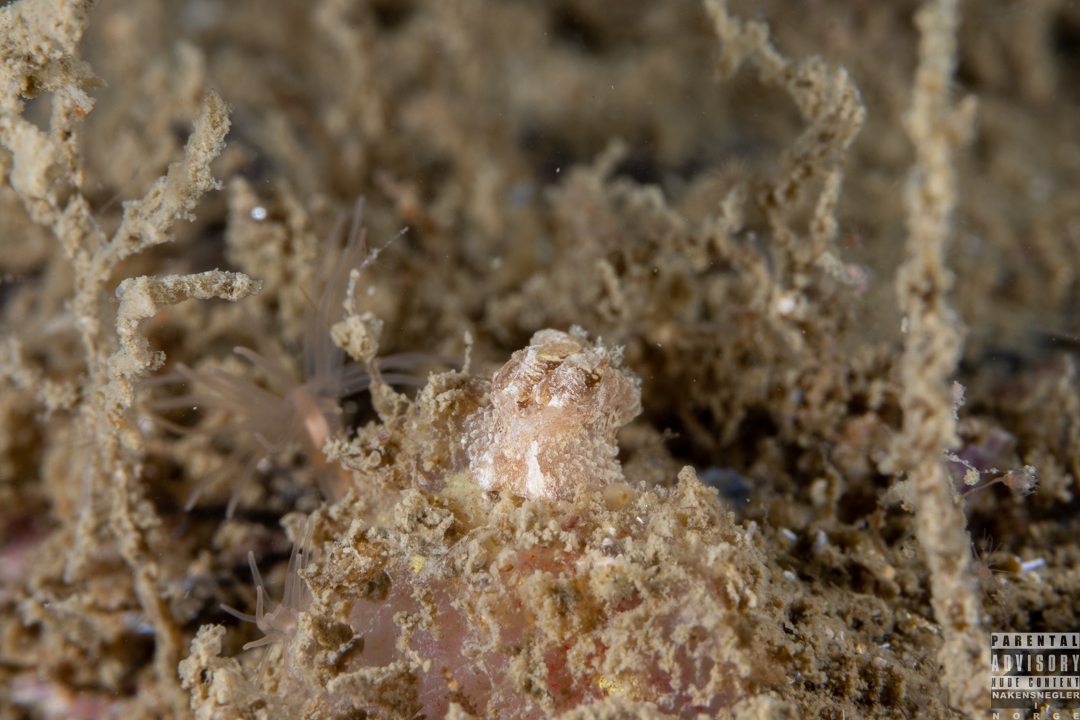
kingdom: Animalia
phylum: Mollusca
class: Gastropoda
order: Nudibranchia
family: Goniodorididae
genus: Pelagella
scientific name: Pelagella castanea
